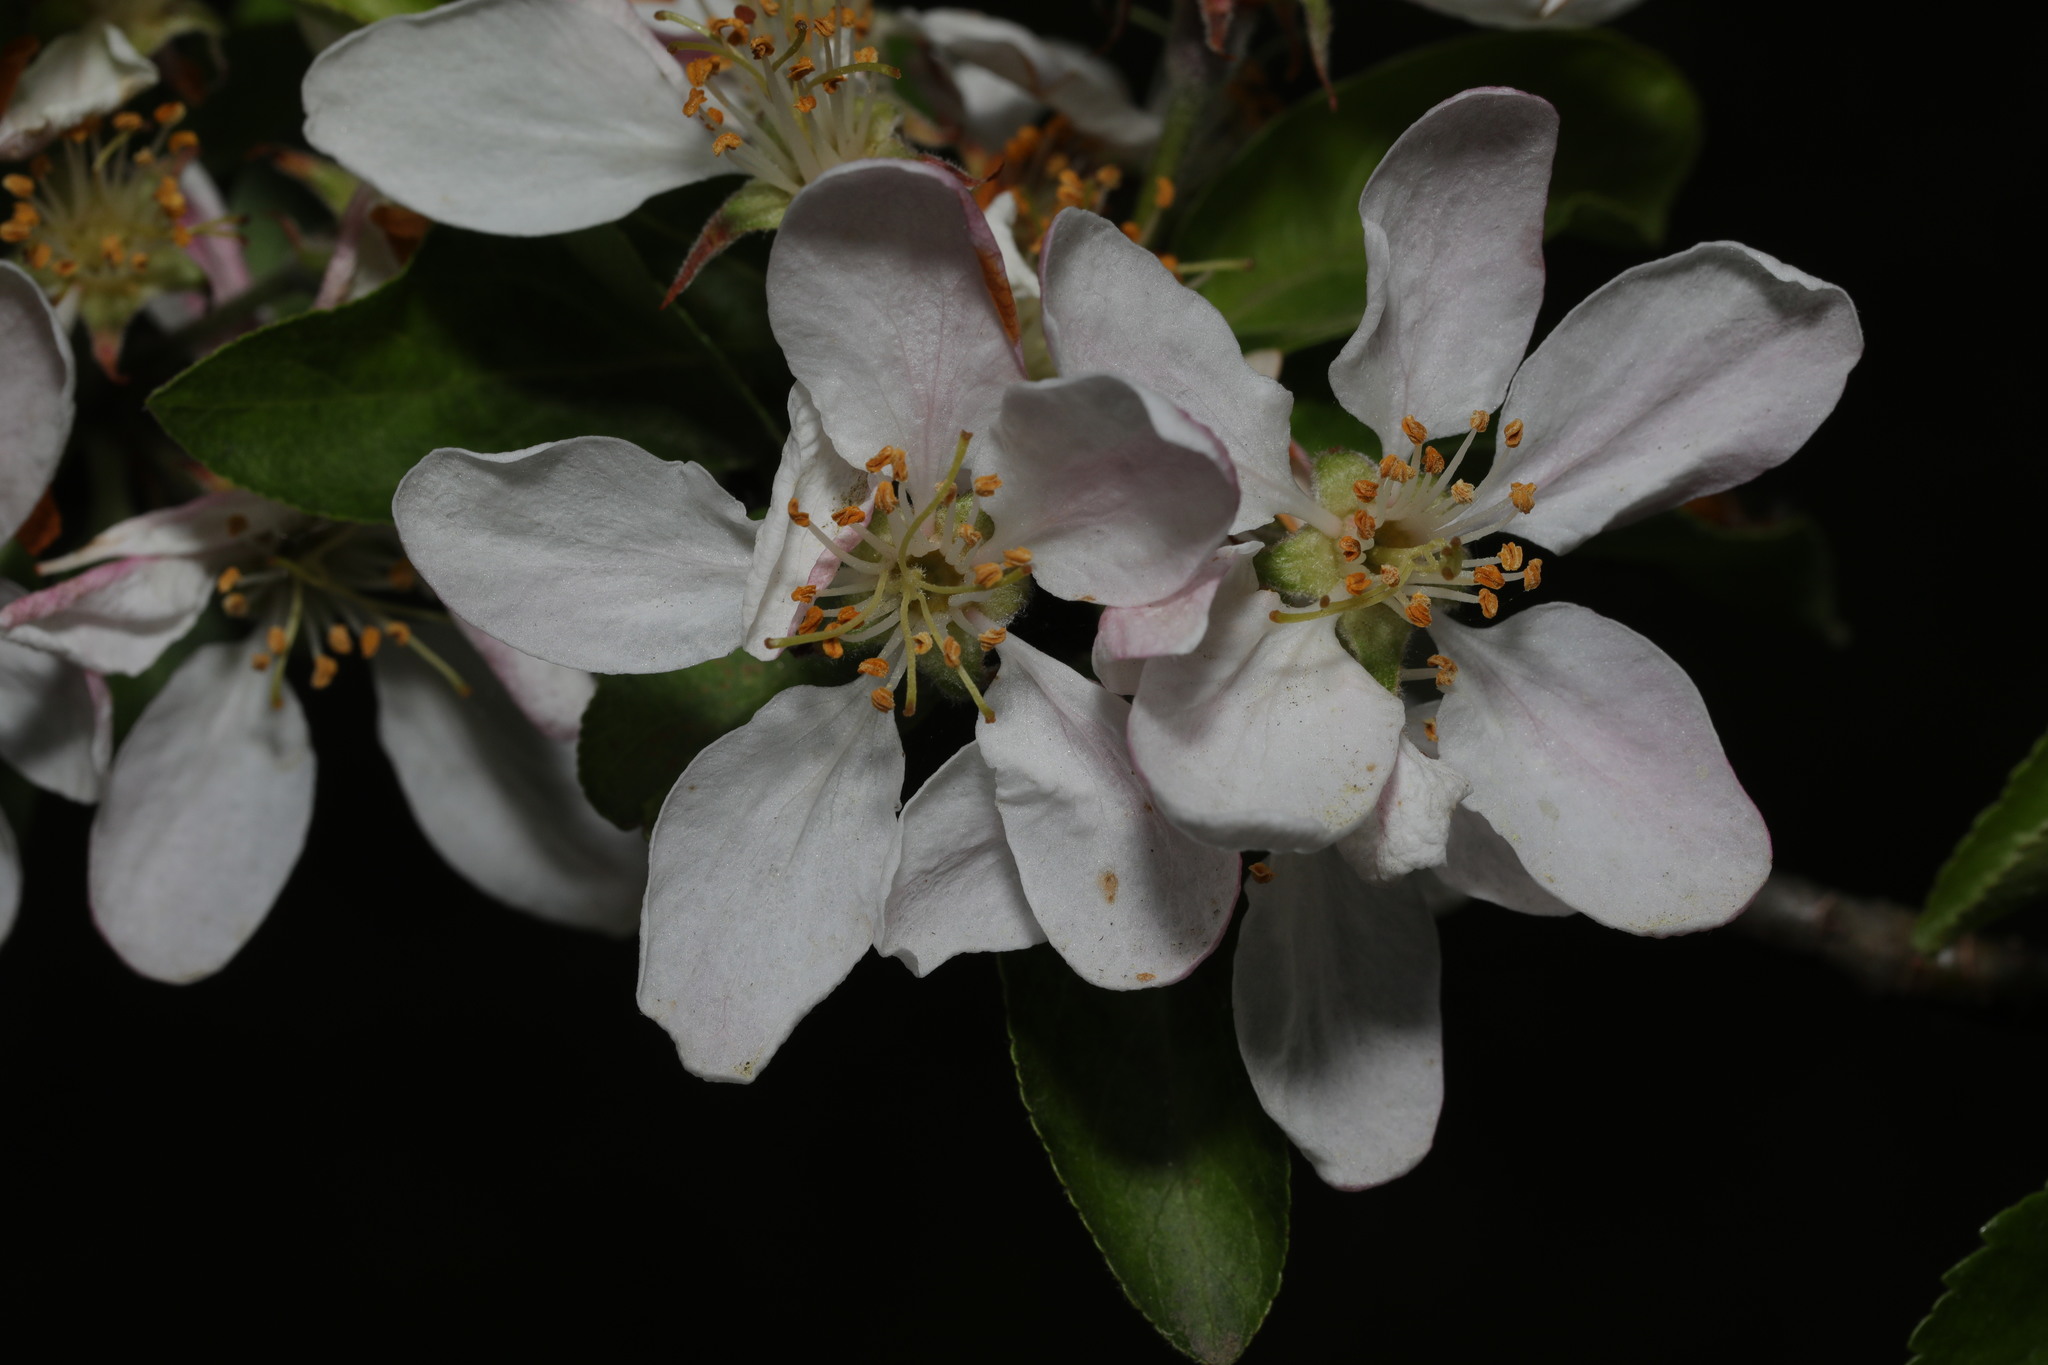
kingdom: Plantae
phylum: Tracheophyta
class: Magnoliopsida
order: Rosales
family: Rosaceae
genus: Malus
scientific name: Malus domestica
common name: Apple
